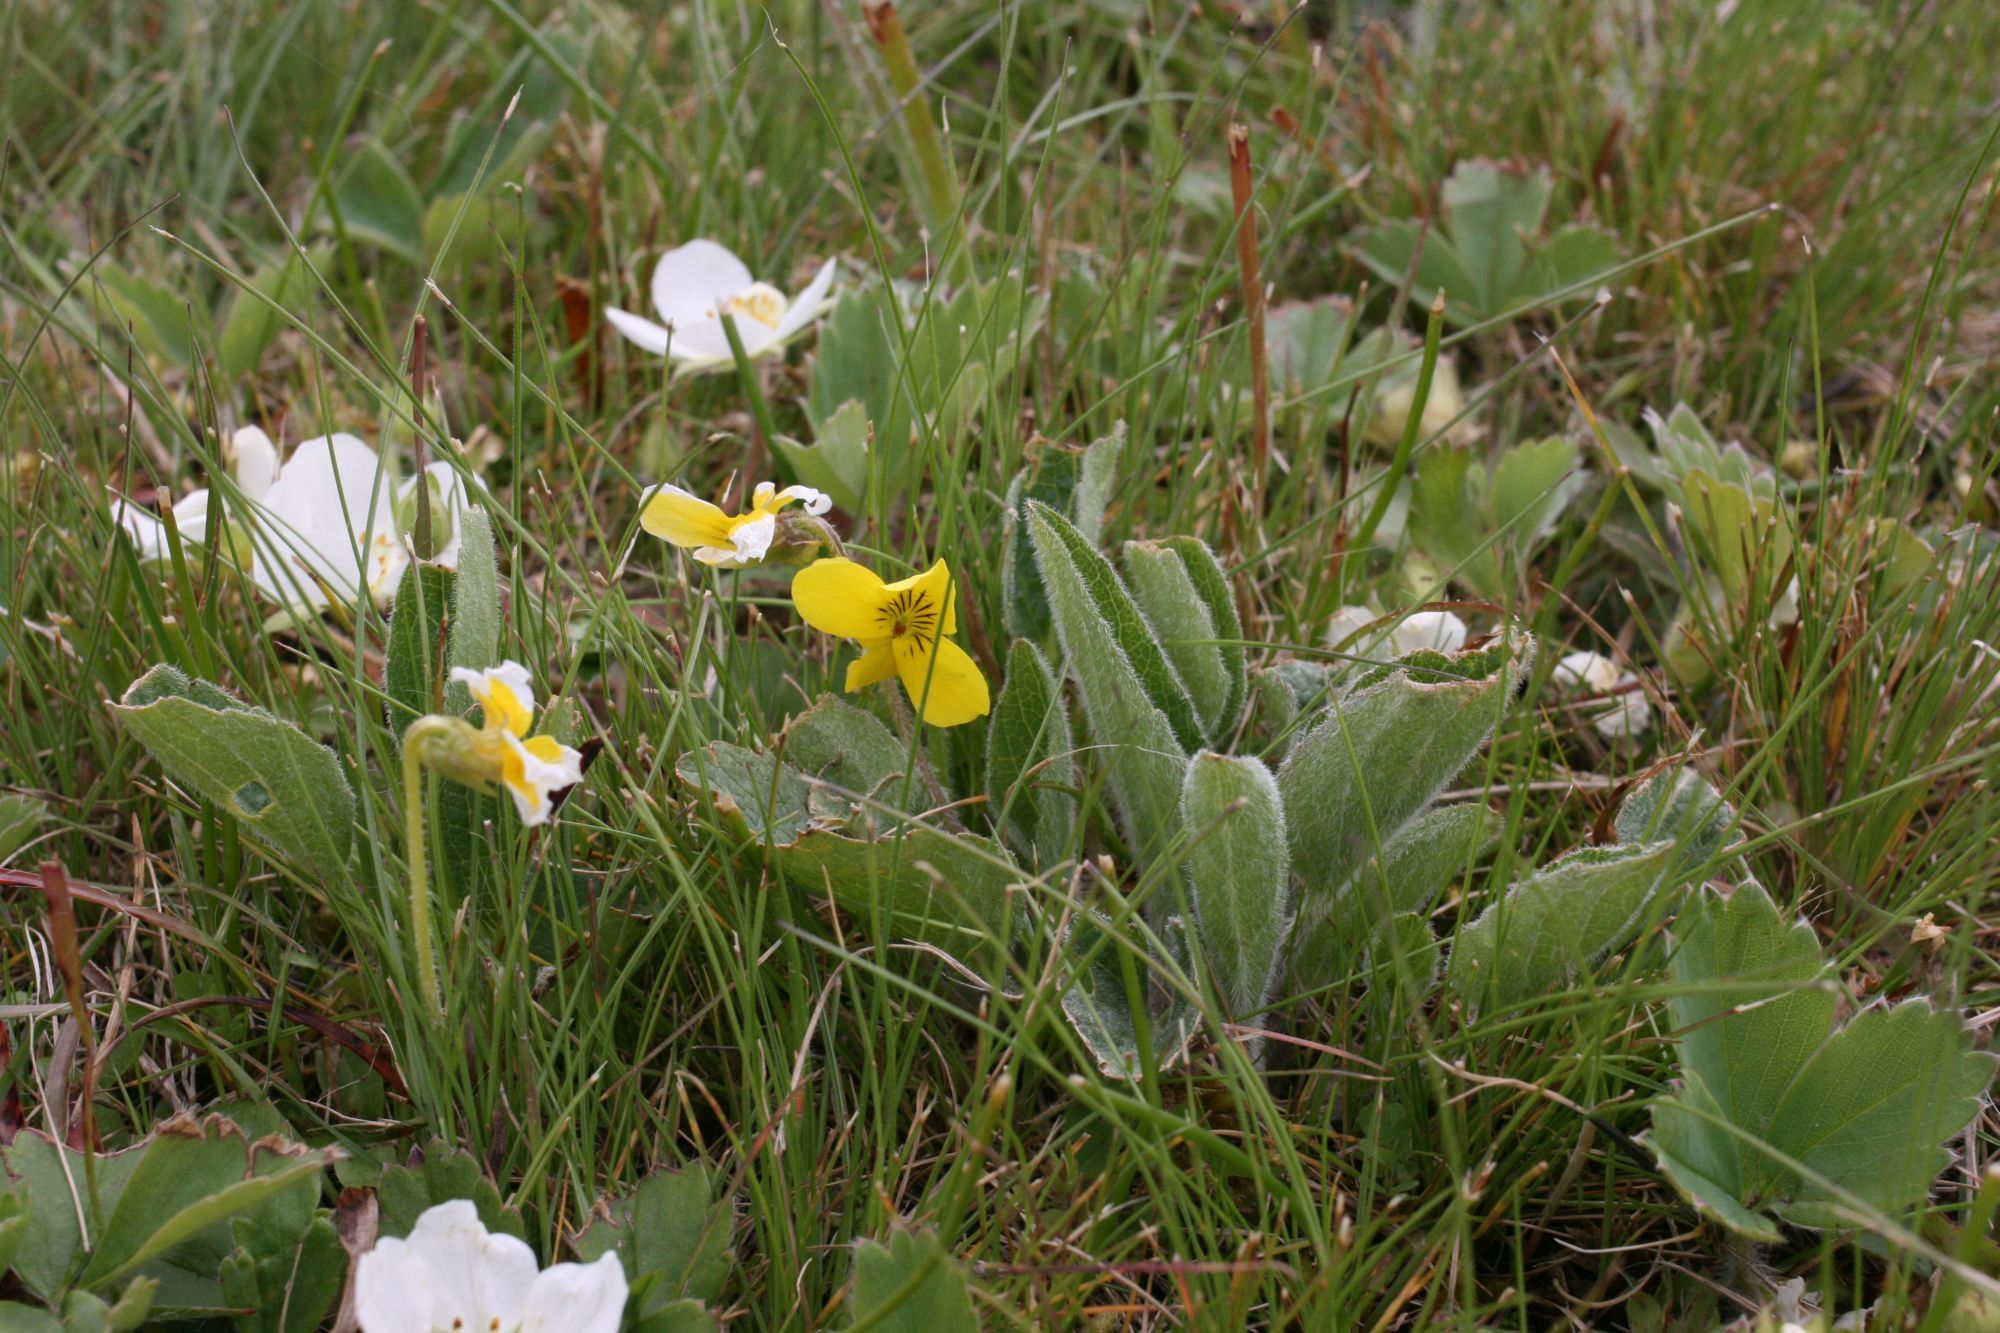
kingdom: Plantae
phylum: Tracheophyta
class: Magnoliopsida
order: Malpighiales
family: Violaceae
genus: Viola
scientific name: Viola praemorsa
